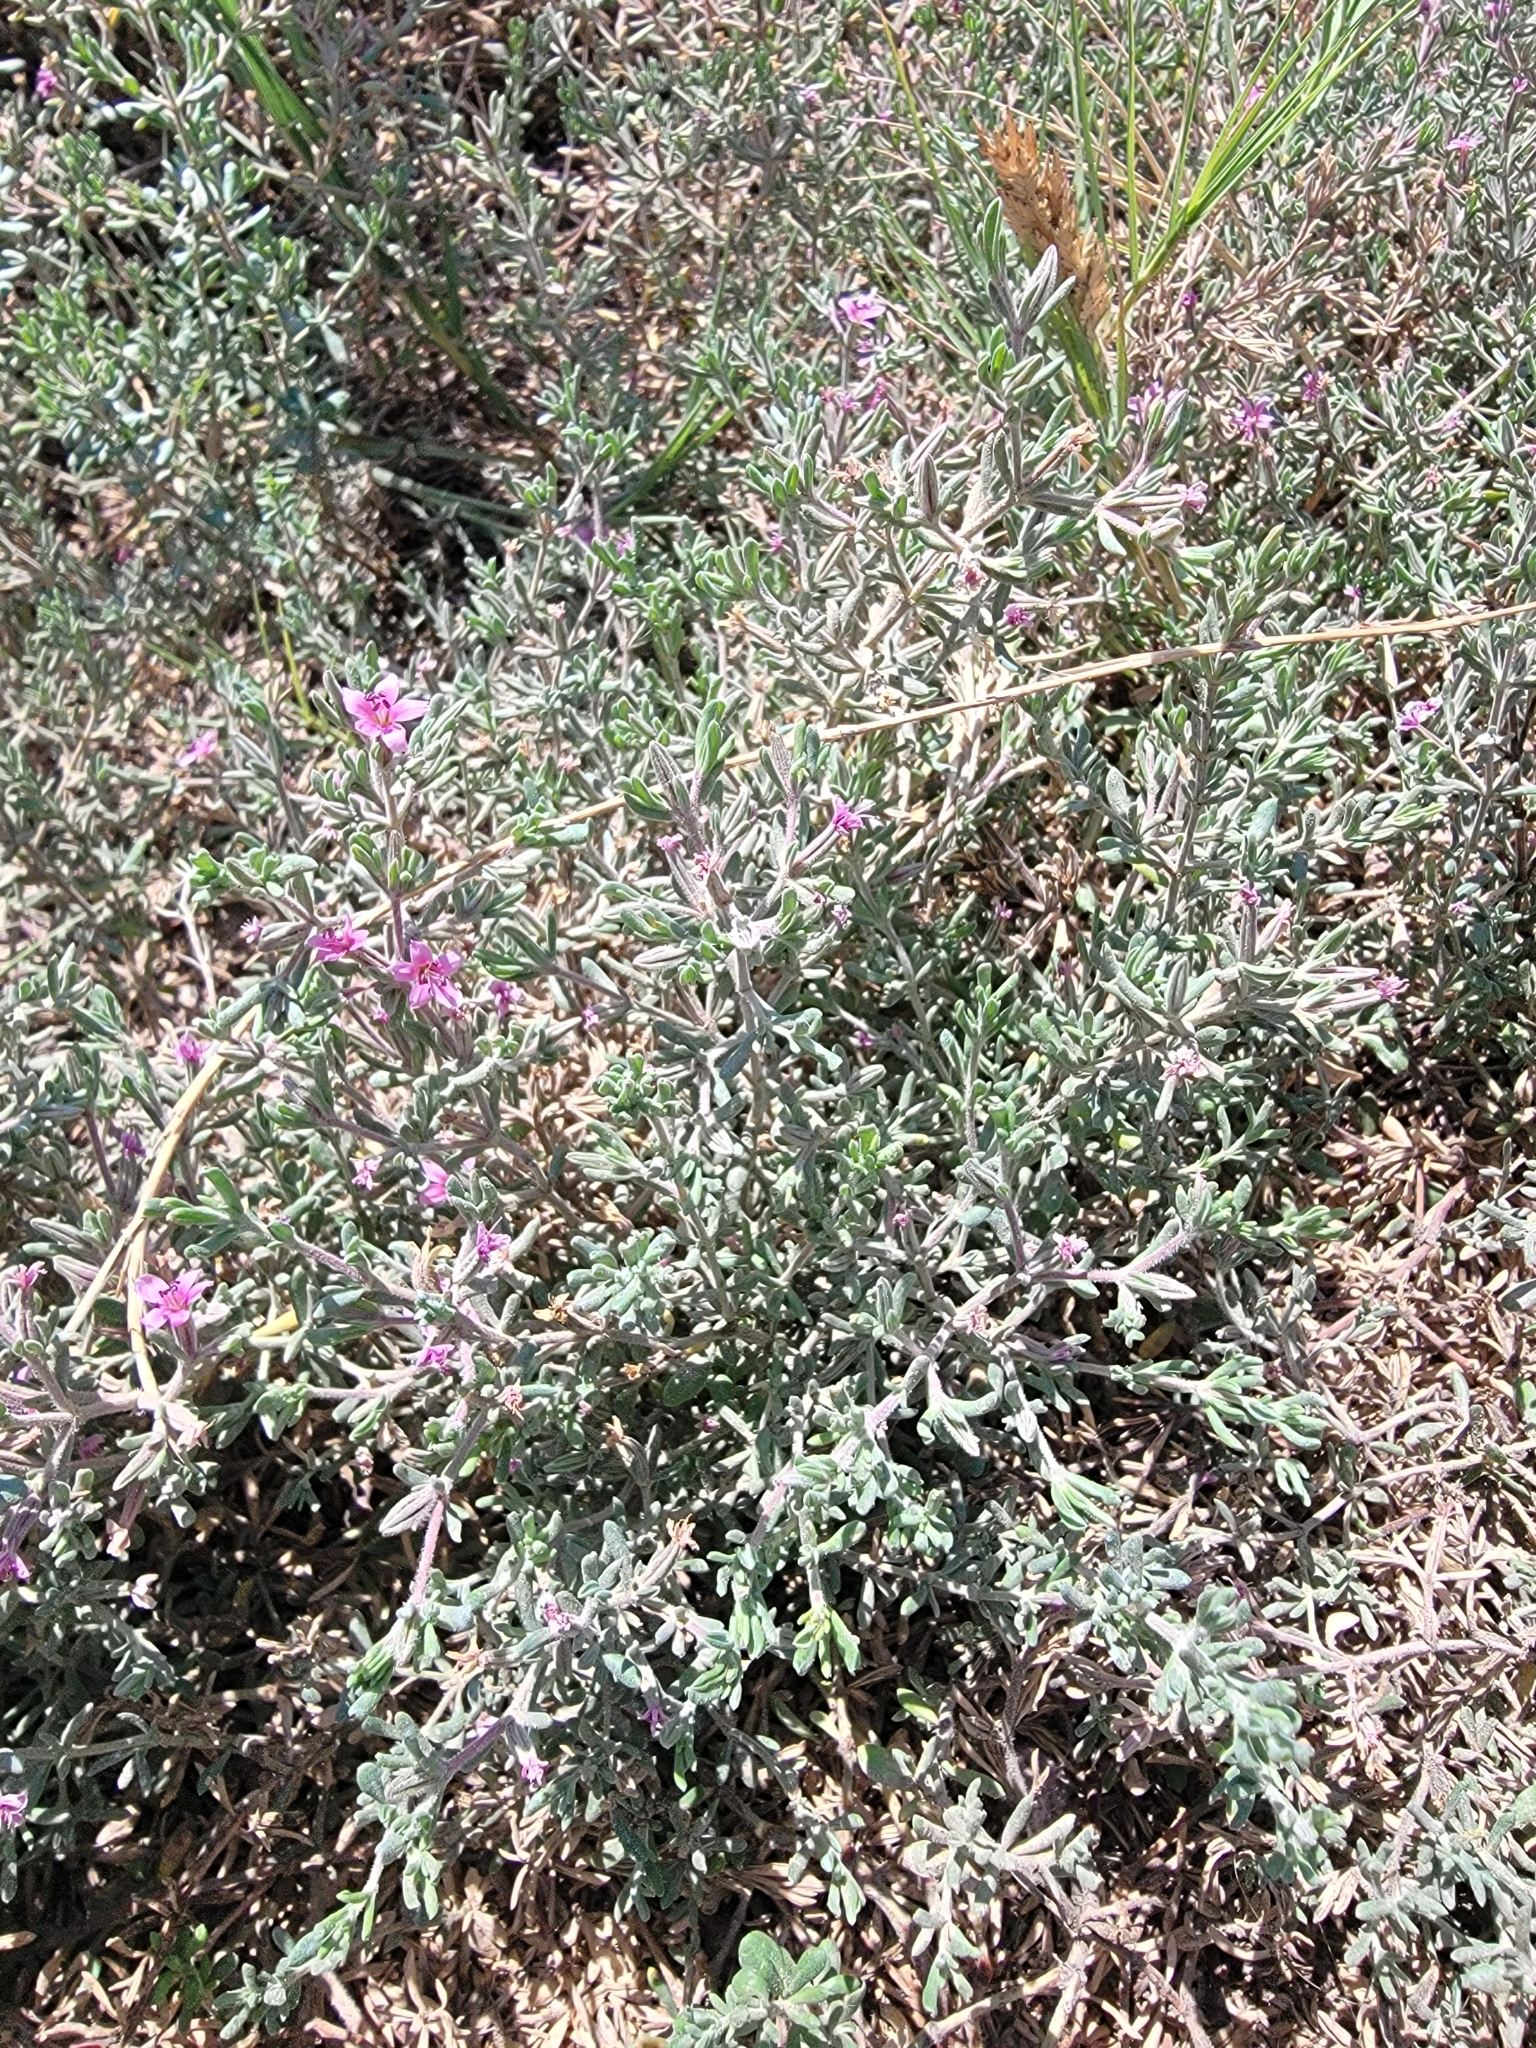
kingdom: Plantae
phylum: Tracheophyta
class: Magnoliopsida
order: Caryophyllales
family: Frankeniaceae
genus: Frankenia
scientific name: Frankenia salina
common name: Alkali seaheath
